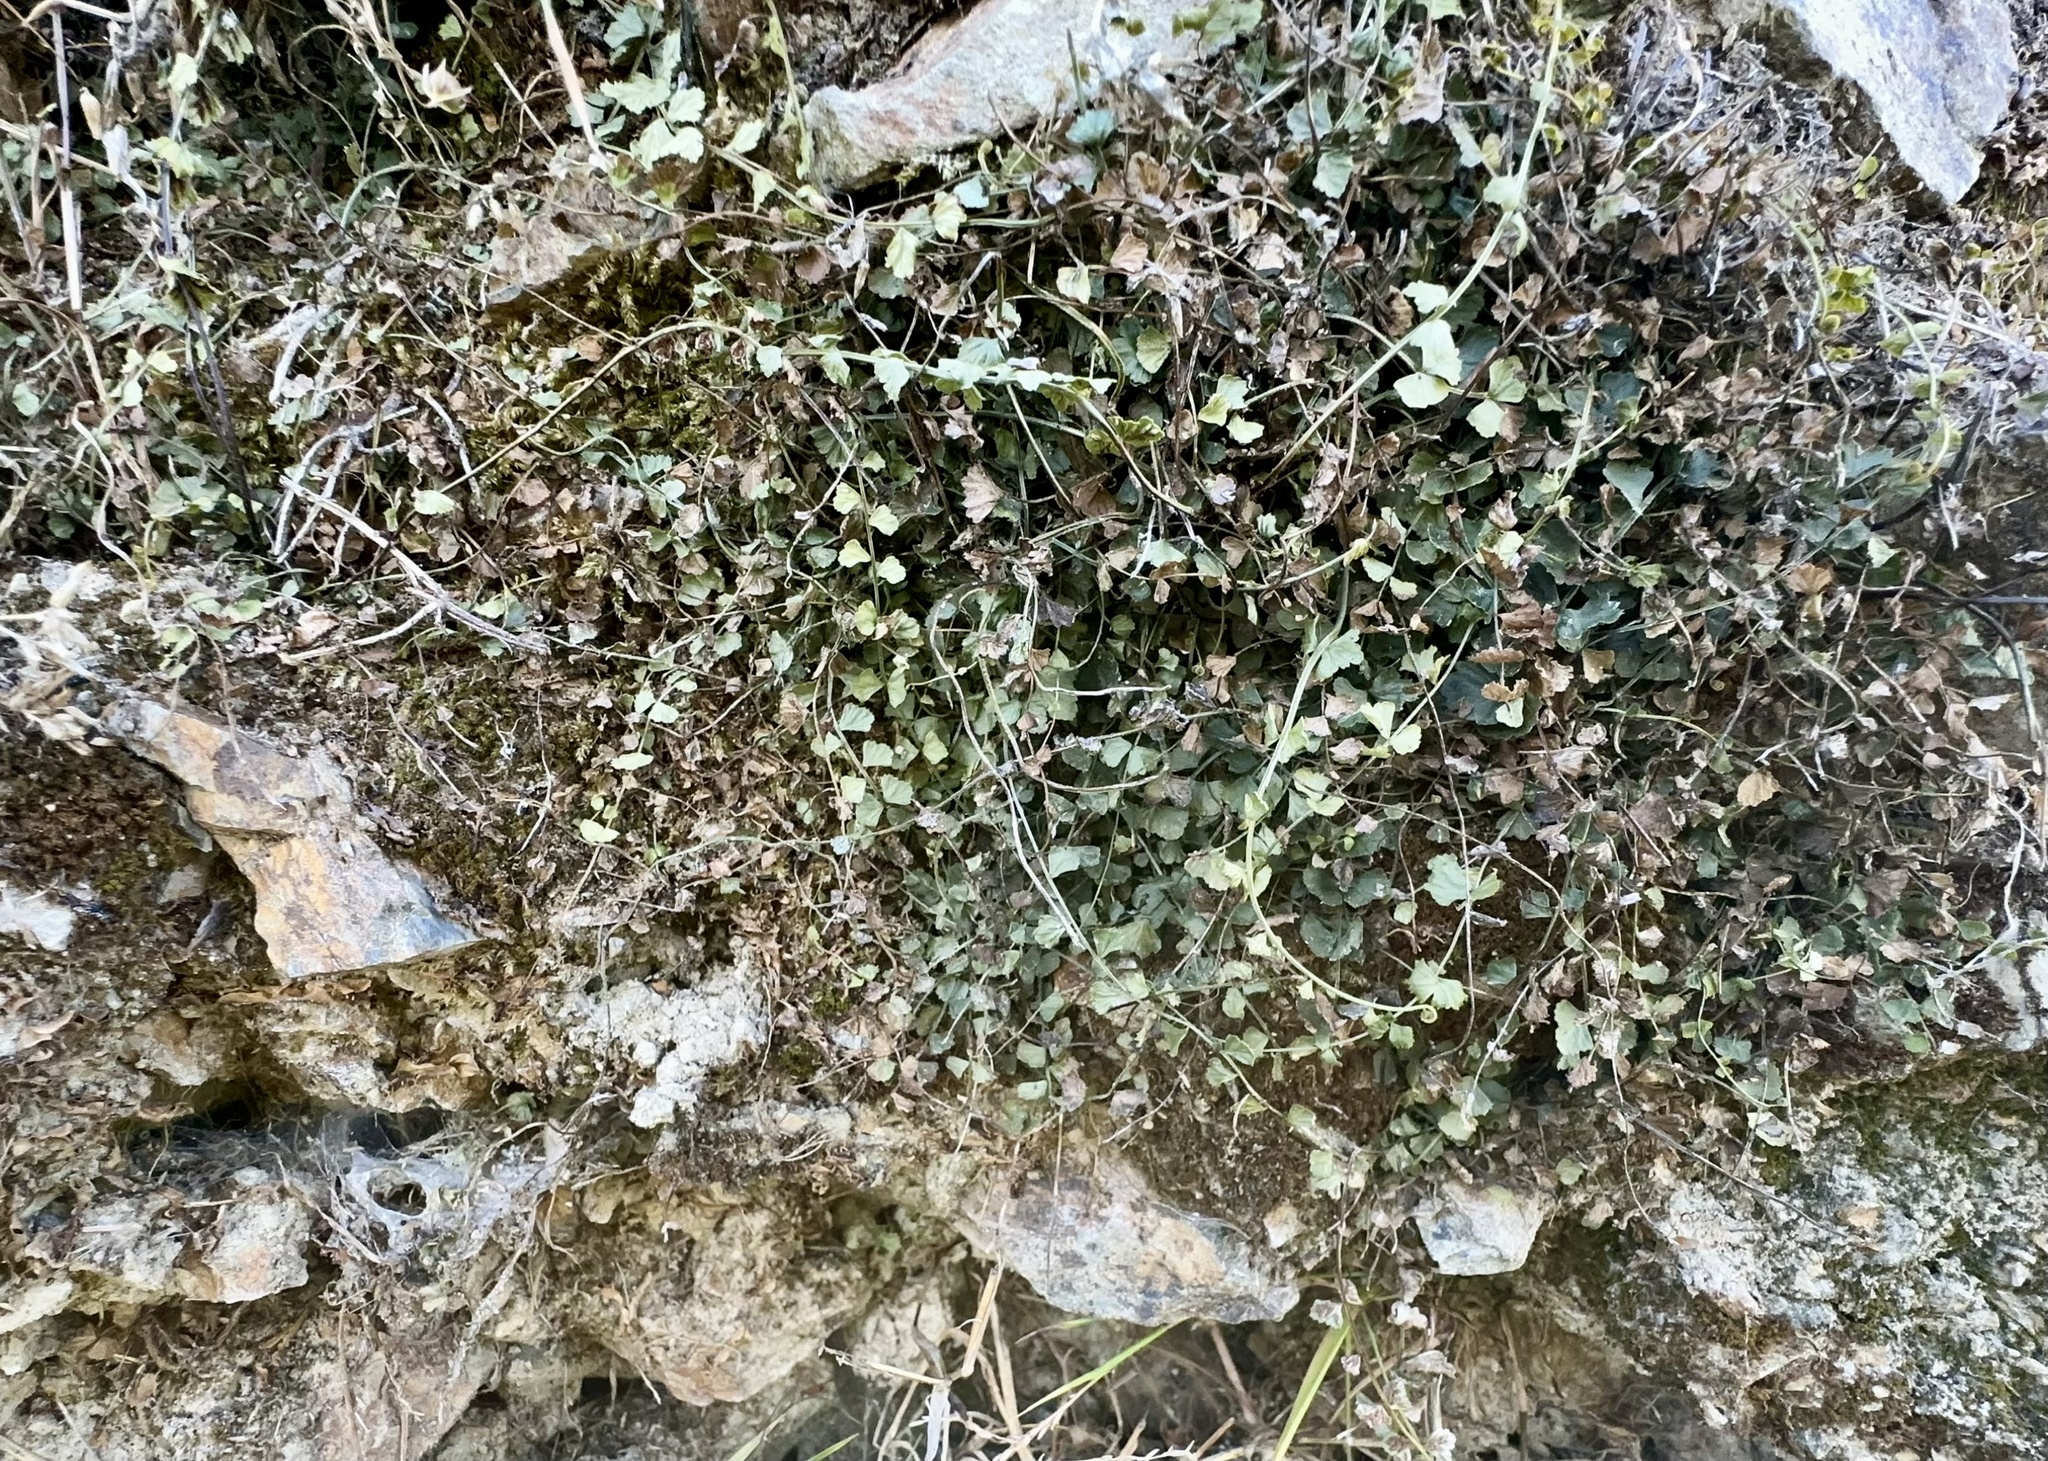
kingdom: Plantae
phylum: Tracheophyta
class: Polypodiopsida
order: Polypodiales
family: Aspleniaceae
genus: Asplenium
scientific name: Asplenium flabellifolium
